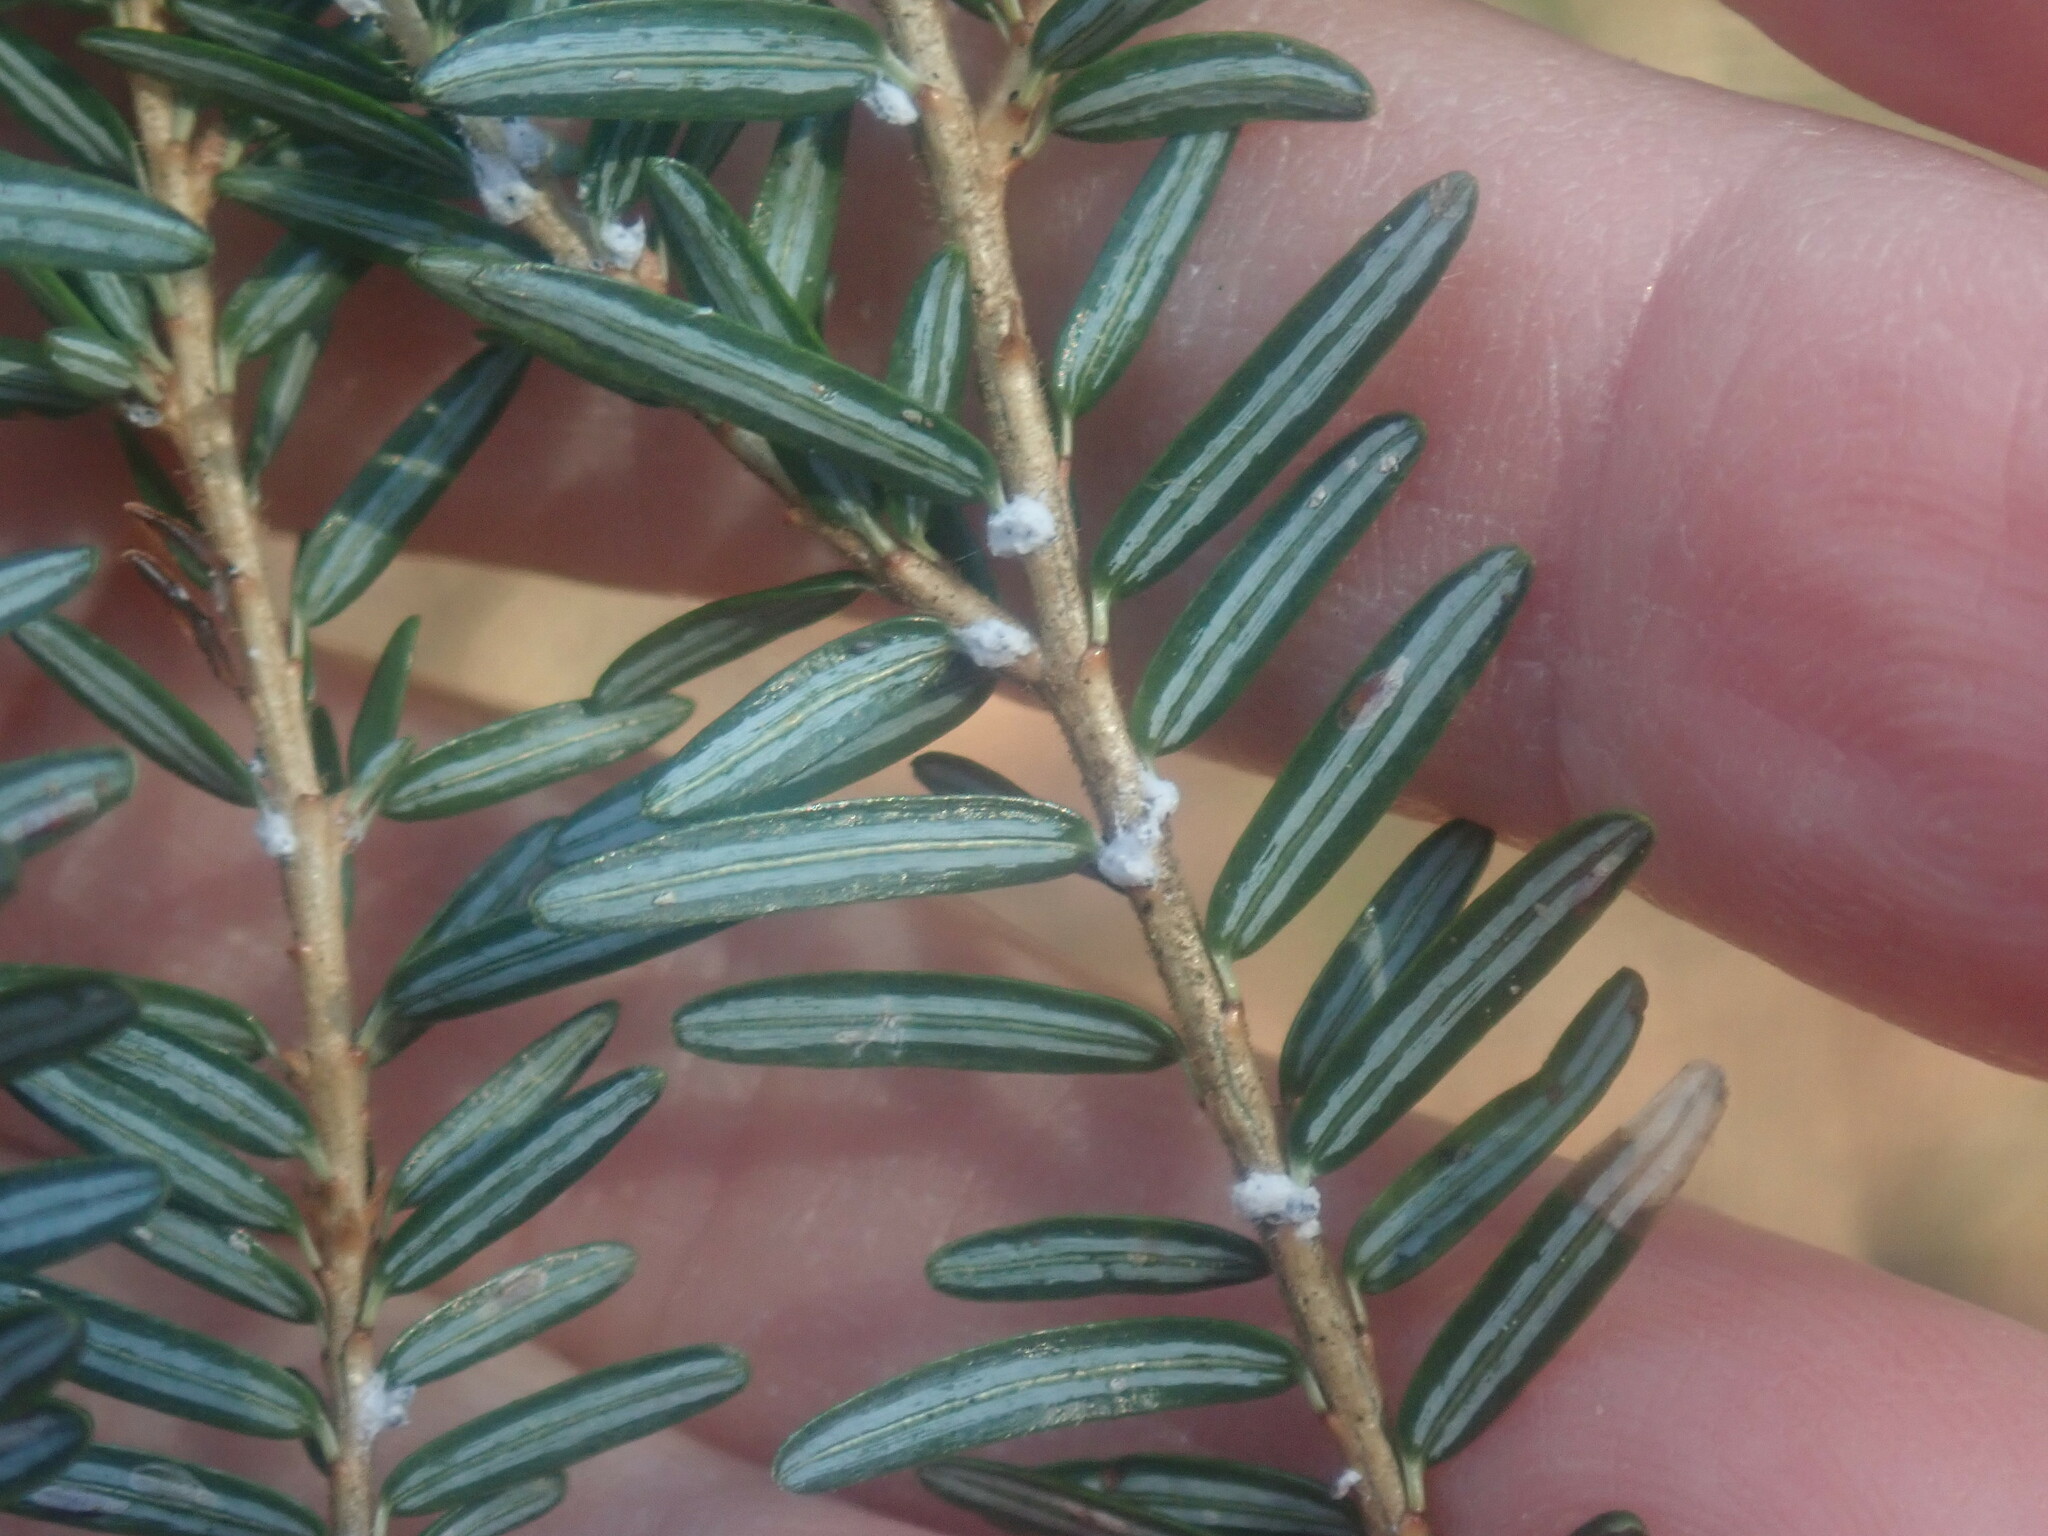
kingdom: Animalia
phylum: Arthropoda
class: Insecta
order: Hemiptera
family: Adelgidae
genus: Adelges
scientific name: Adelges tsugae
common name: Hemlock woolly adelgid
